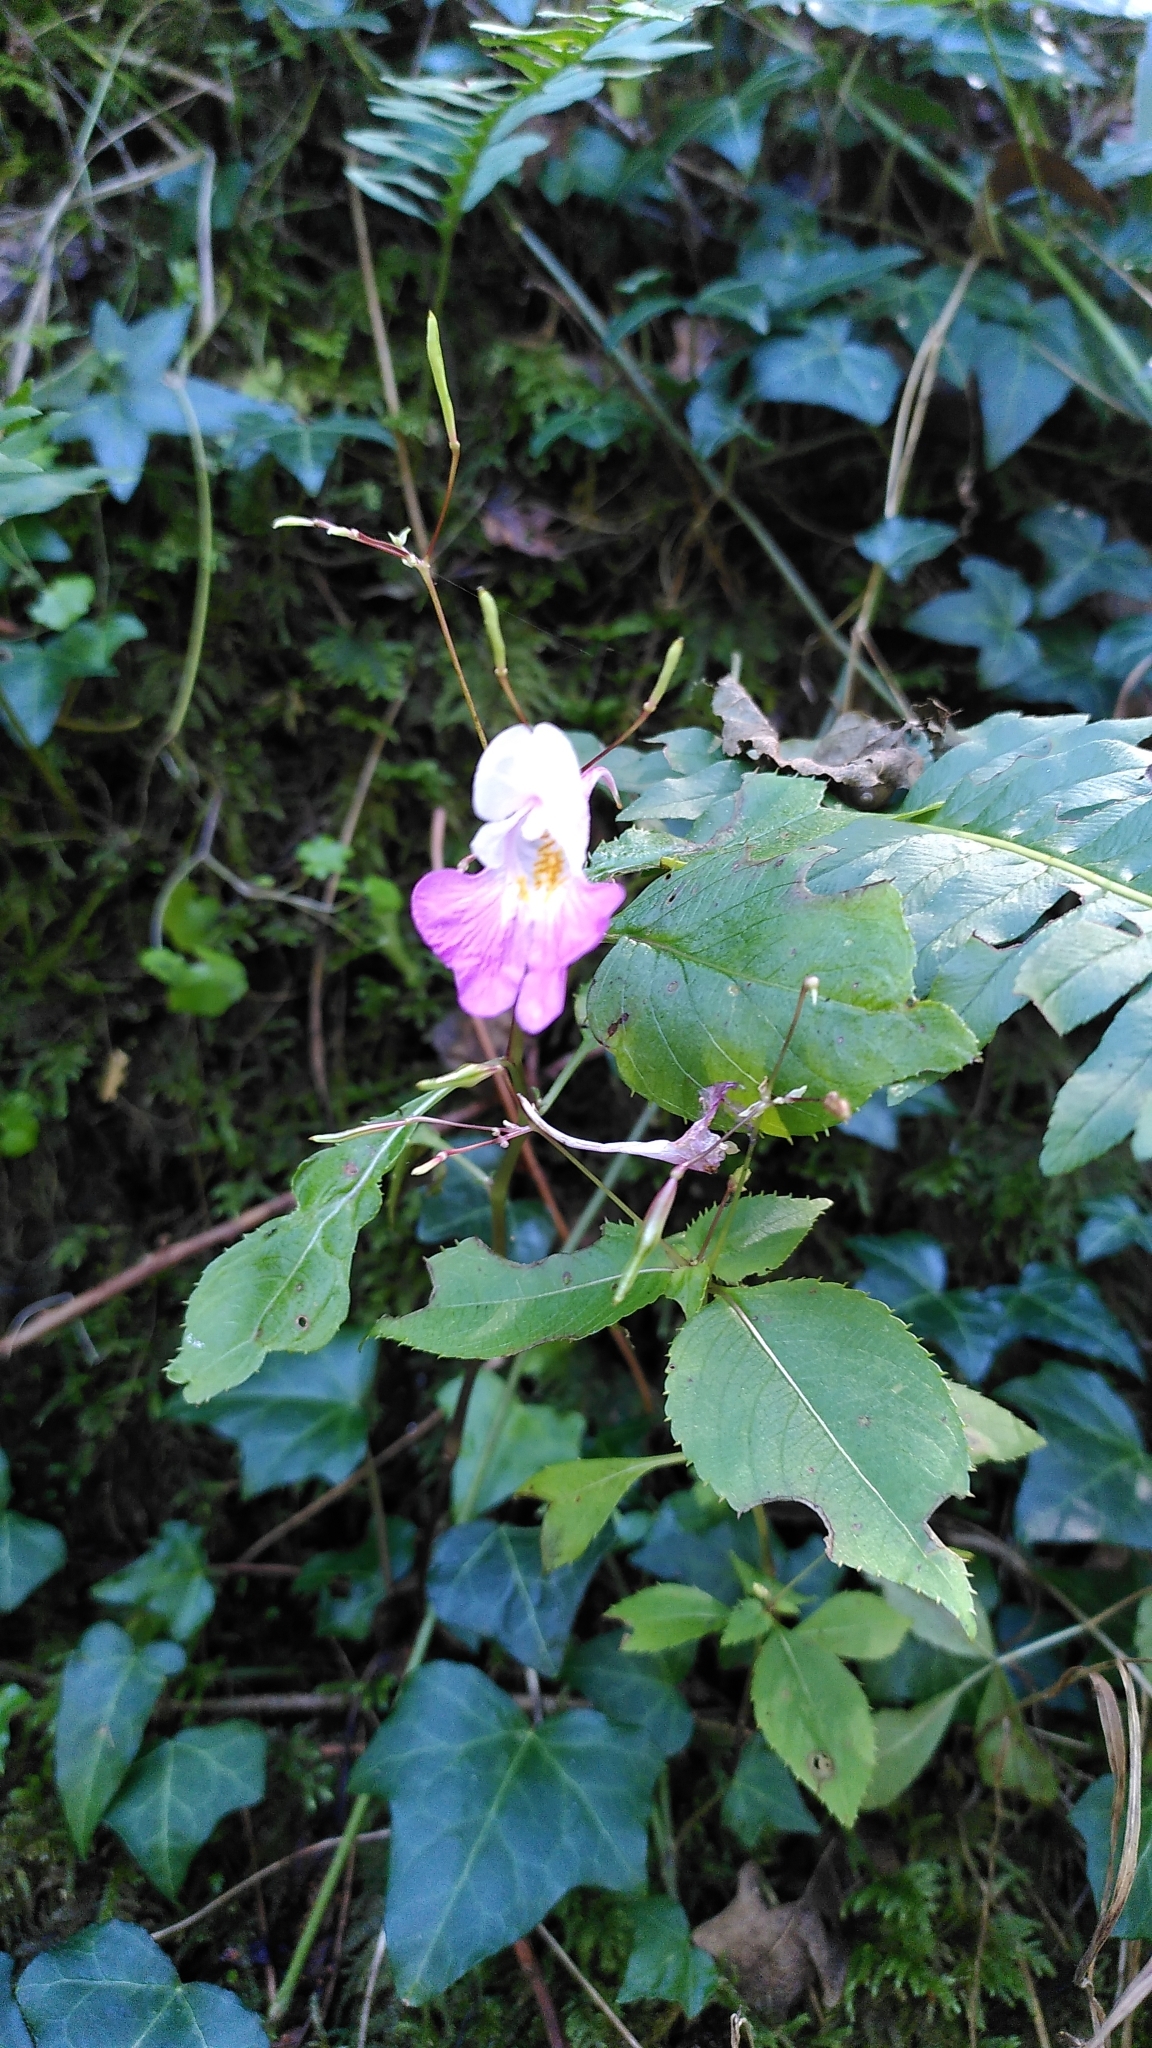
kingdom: Plantae
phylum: Tracheophyta
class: Magnoliopsida
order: Ericales
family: Balsaminaceae
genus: Impatiens
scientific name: Impatiens balfourii
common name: Balfour's touch-me-not
